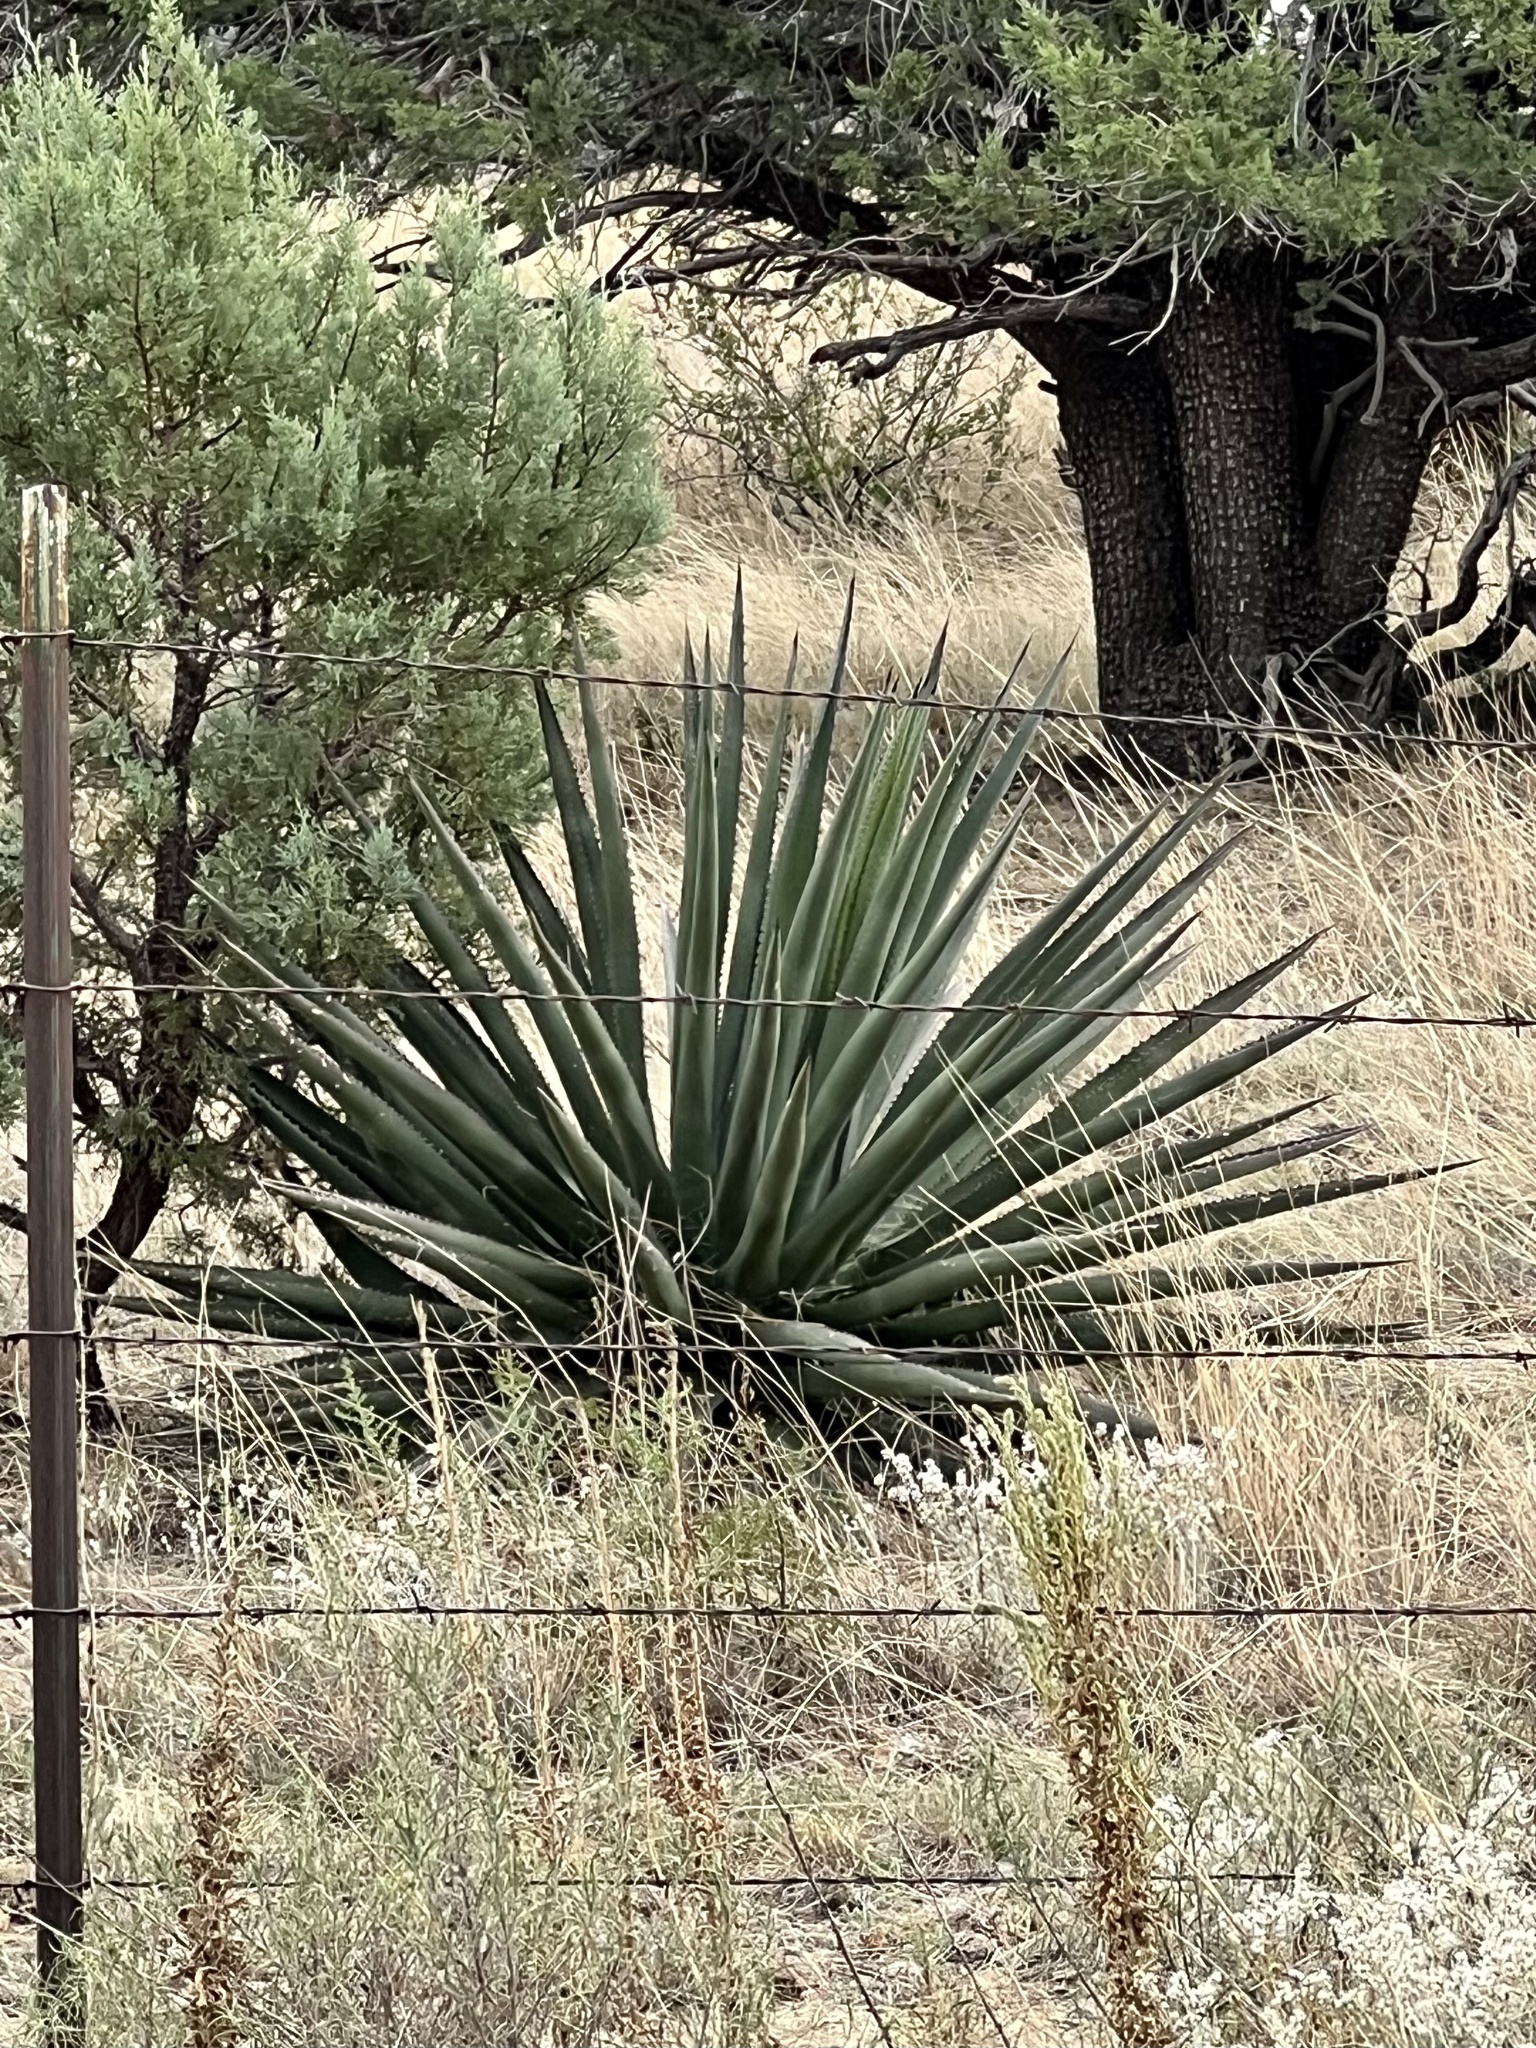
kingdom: Plantae
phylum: Tracheophyta
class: Liliopsida
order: Asparagales
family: Asparagaceae
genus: Agave
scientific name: Agave palmeri
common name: Palmer agave
